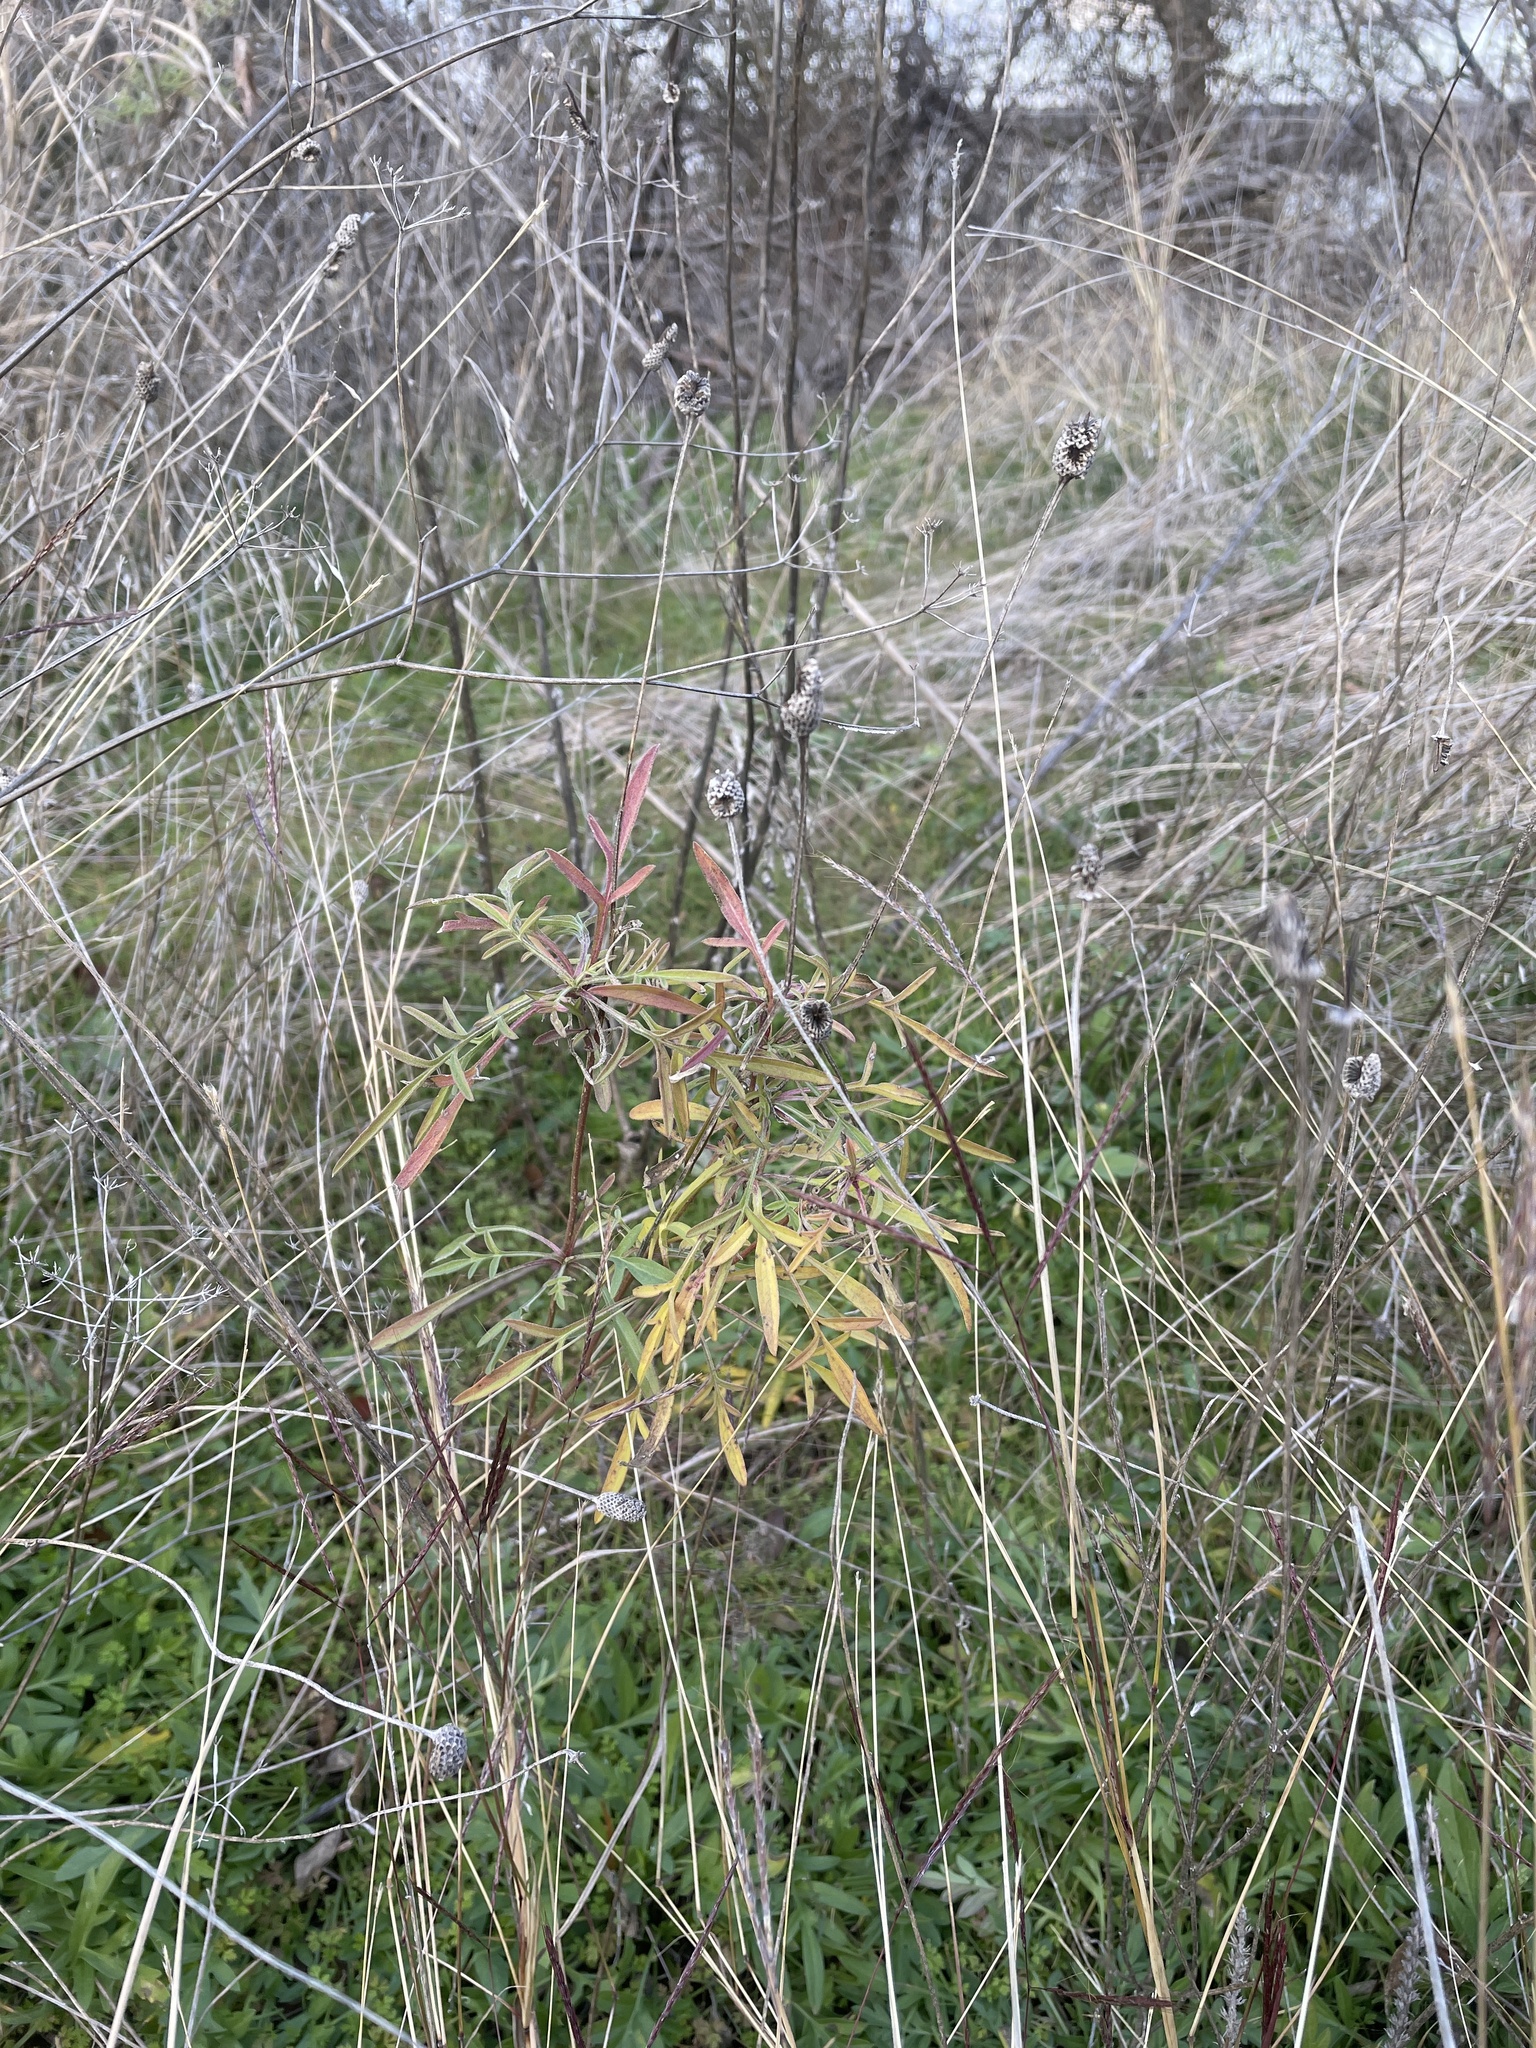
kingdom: Plantae
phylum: Tracheophyta
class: Magnoliopsida
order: Asterales
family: Asteraceae
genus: Ratibida
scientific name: Ratibida columnifera
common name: Prairie coneflower
